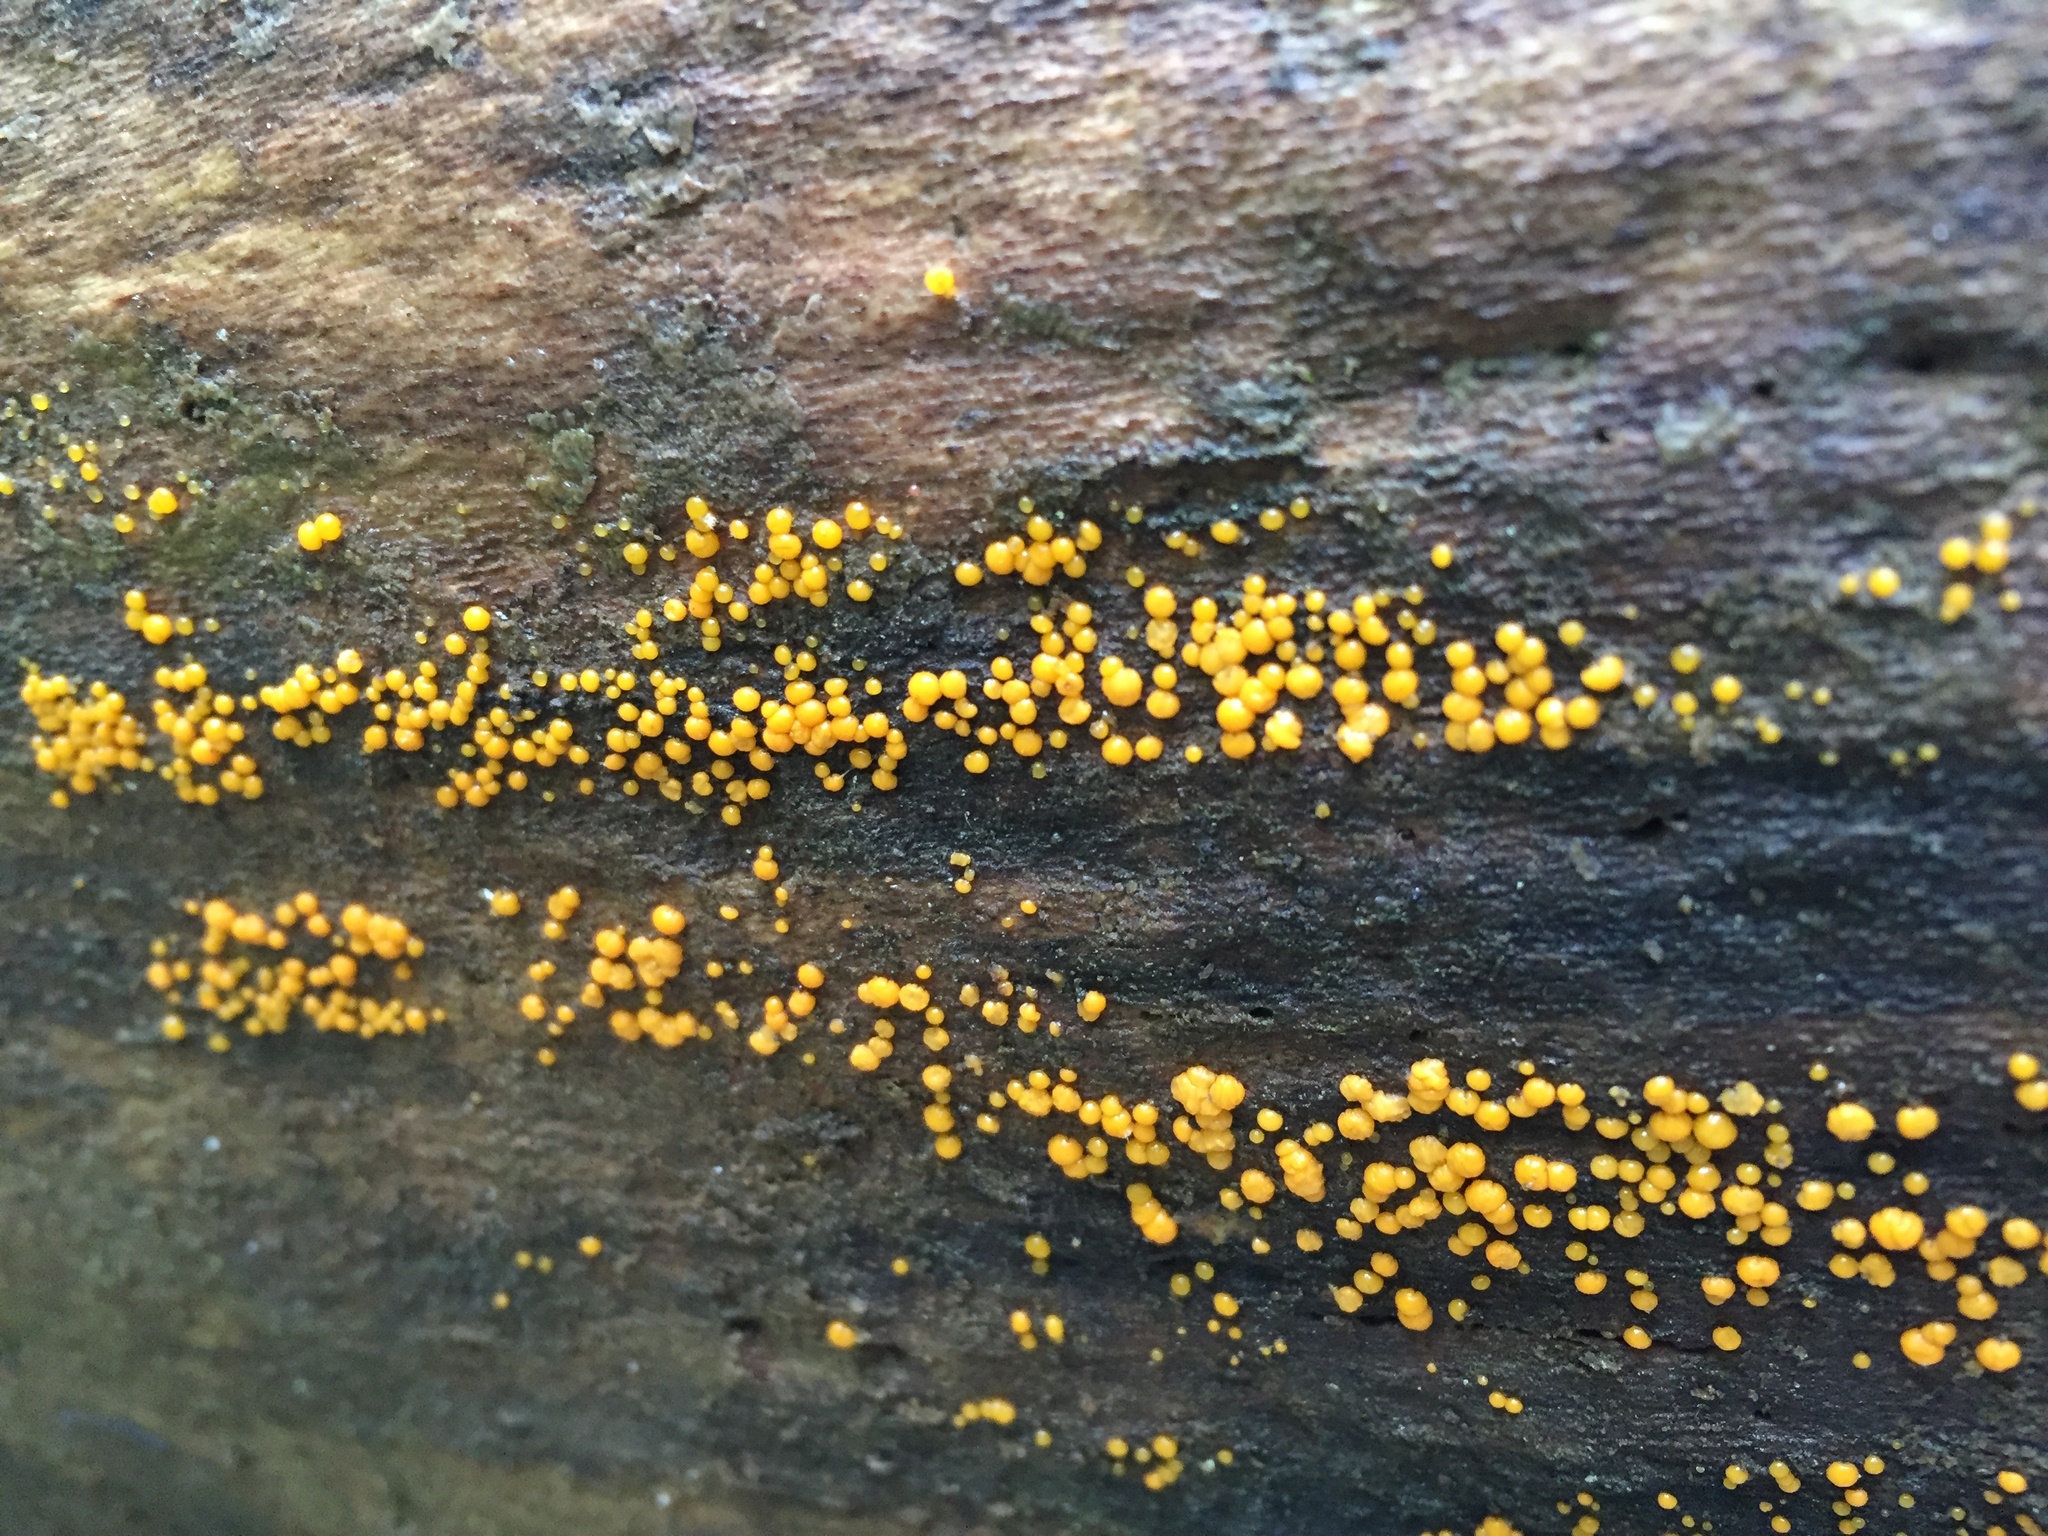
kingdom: Fungi
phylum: Basidiomycota
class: Dacrymycetes
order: Dacrymycetales
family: Dacrymycetaceae
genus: Dacrymyces
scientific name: Dacrymyces stillatus
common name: Common jelly spot
